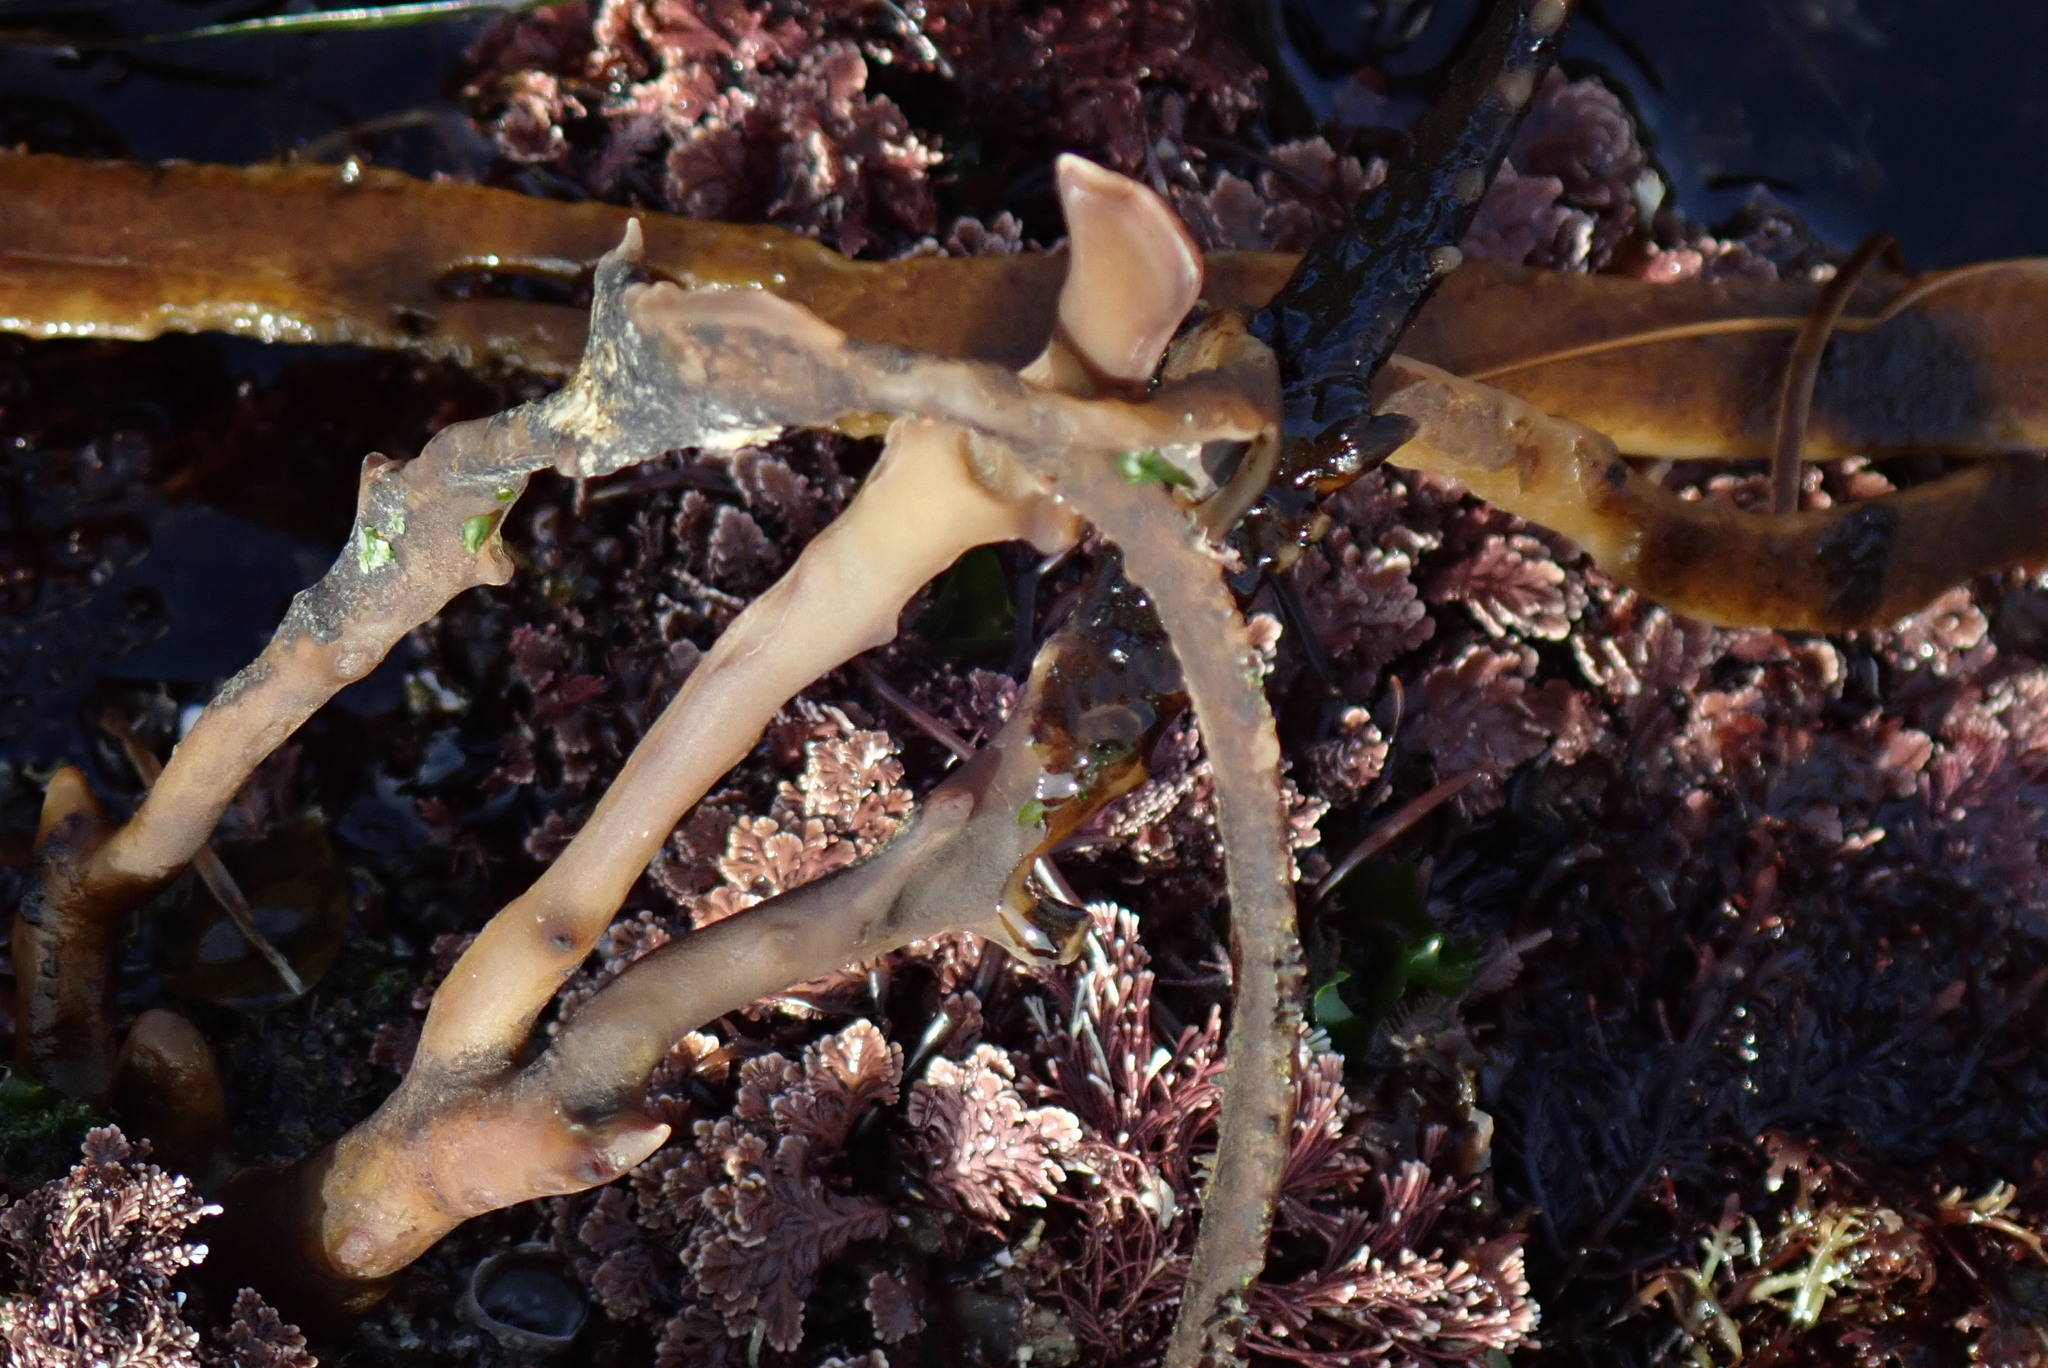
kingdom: Chromista
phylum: Ochrophyta
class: Phaeophyceae
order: Laminariales
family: Lessoniaceae
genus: Egregia
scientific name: Egregia menziesii
